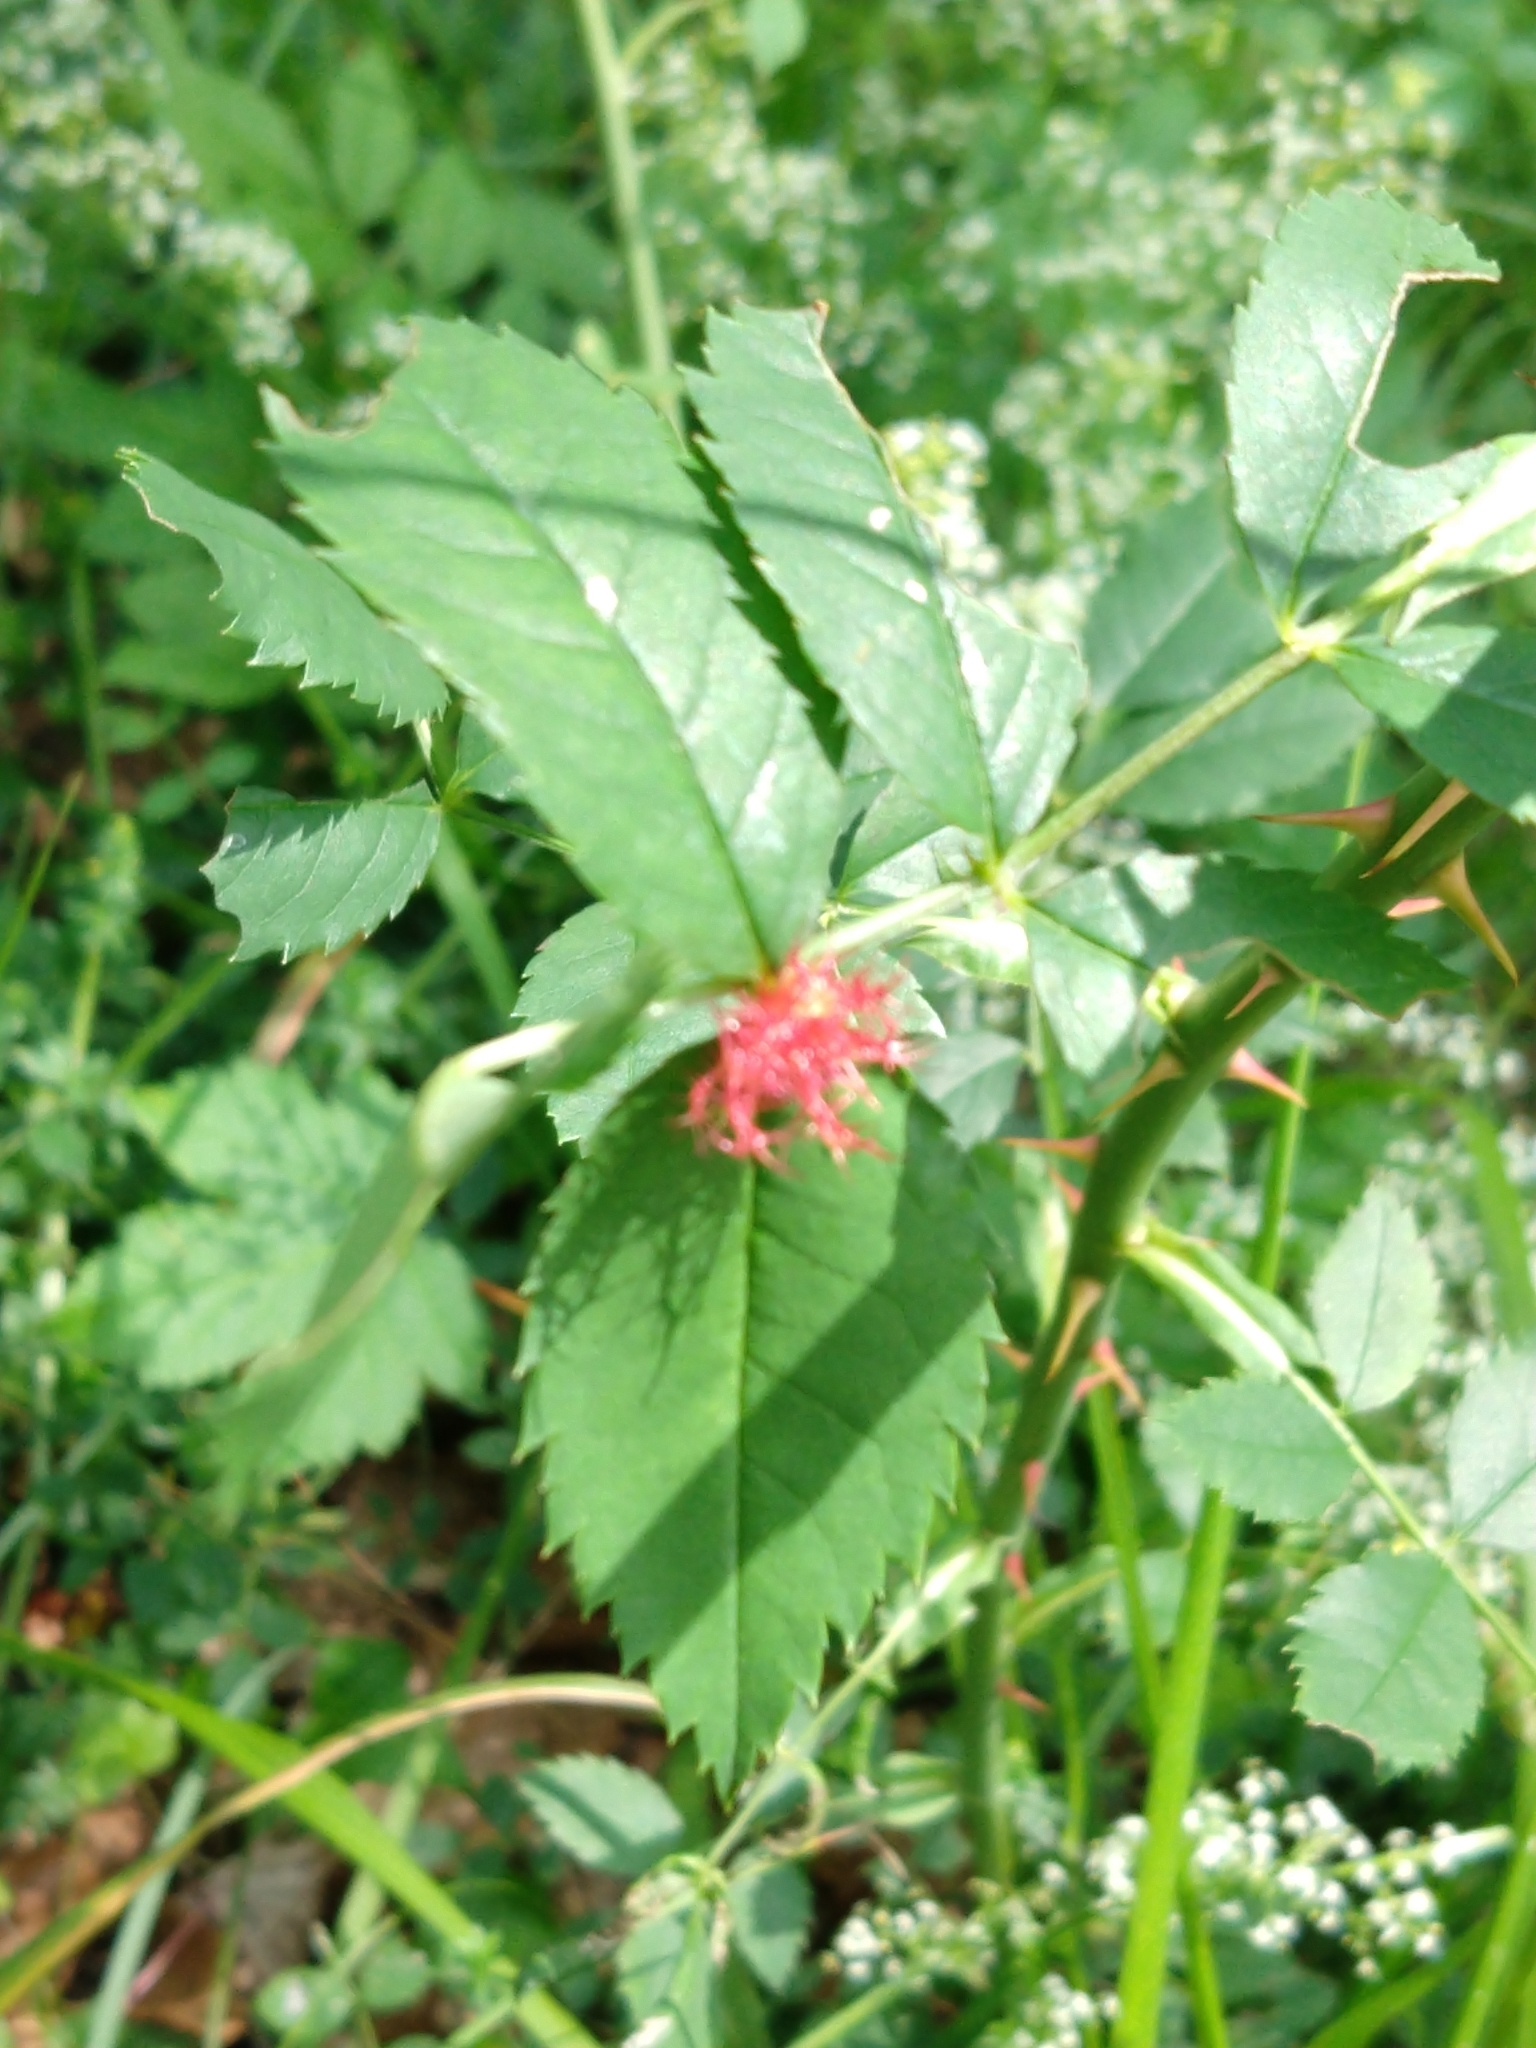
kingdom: Animalia
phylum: Arthropoda
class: Insecta
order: Hymenoptera
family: Cynipidae
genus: Diplolepis
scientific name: Diplolepis rosae
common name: Bedeguar gall
